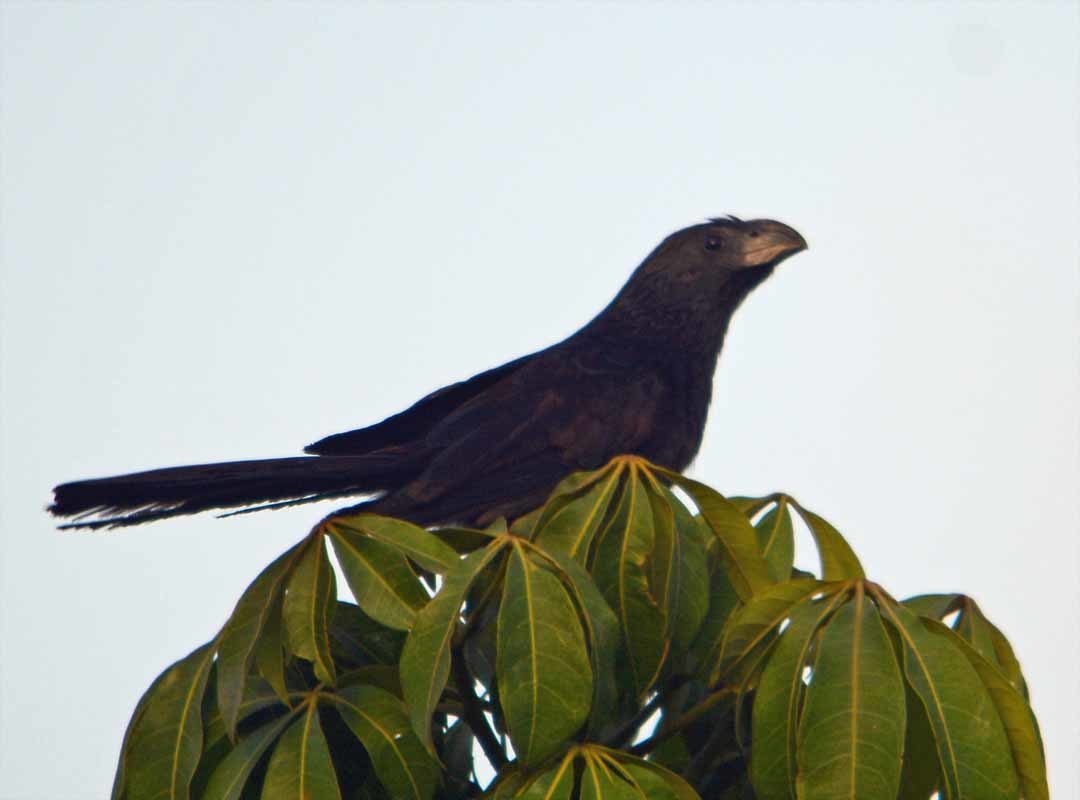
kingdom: Animalia
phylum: Chordata
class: Aves
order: Cuculiformes
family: Cuculidae
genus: Crotophaga
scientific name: Crotophaga sulcirostris
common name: Groove-billed ani
